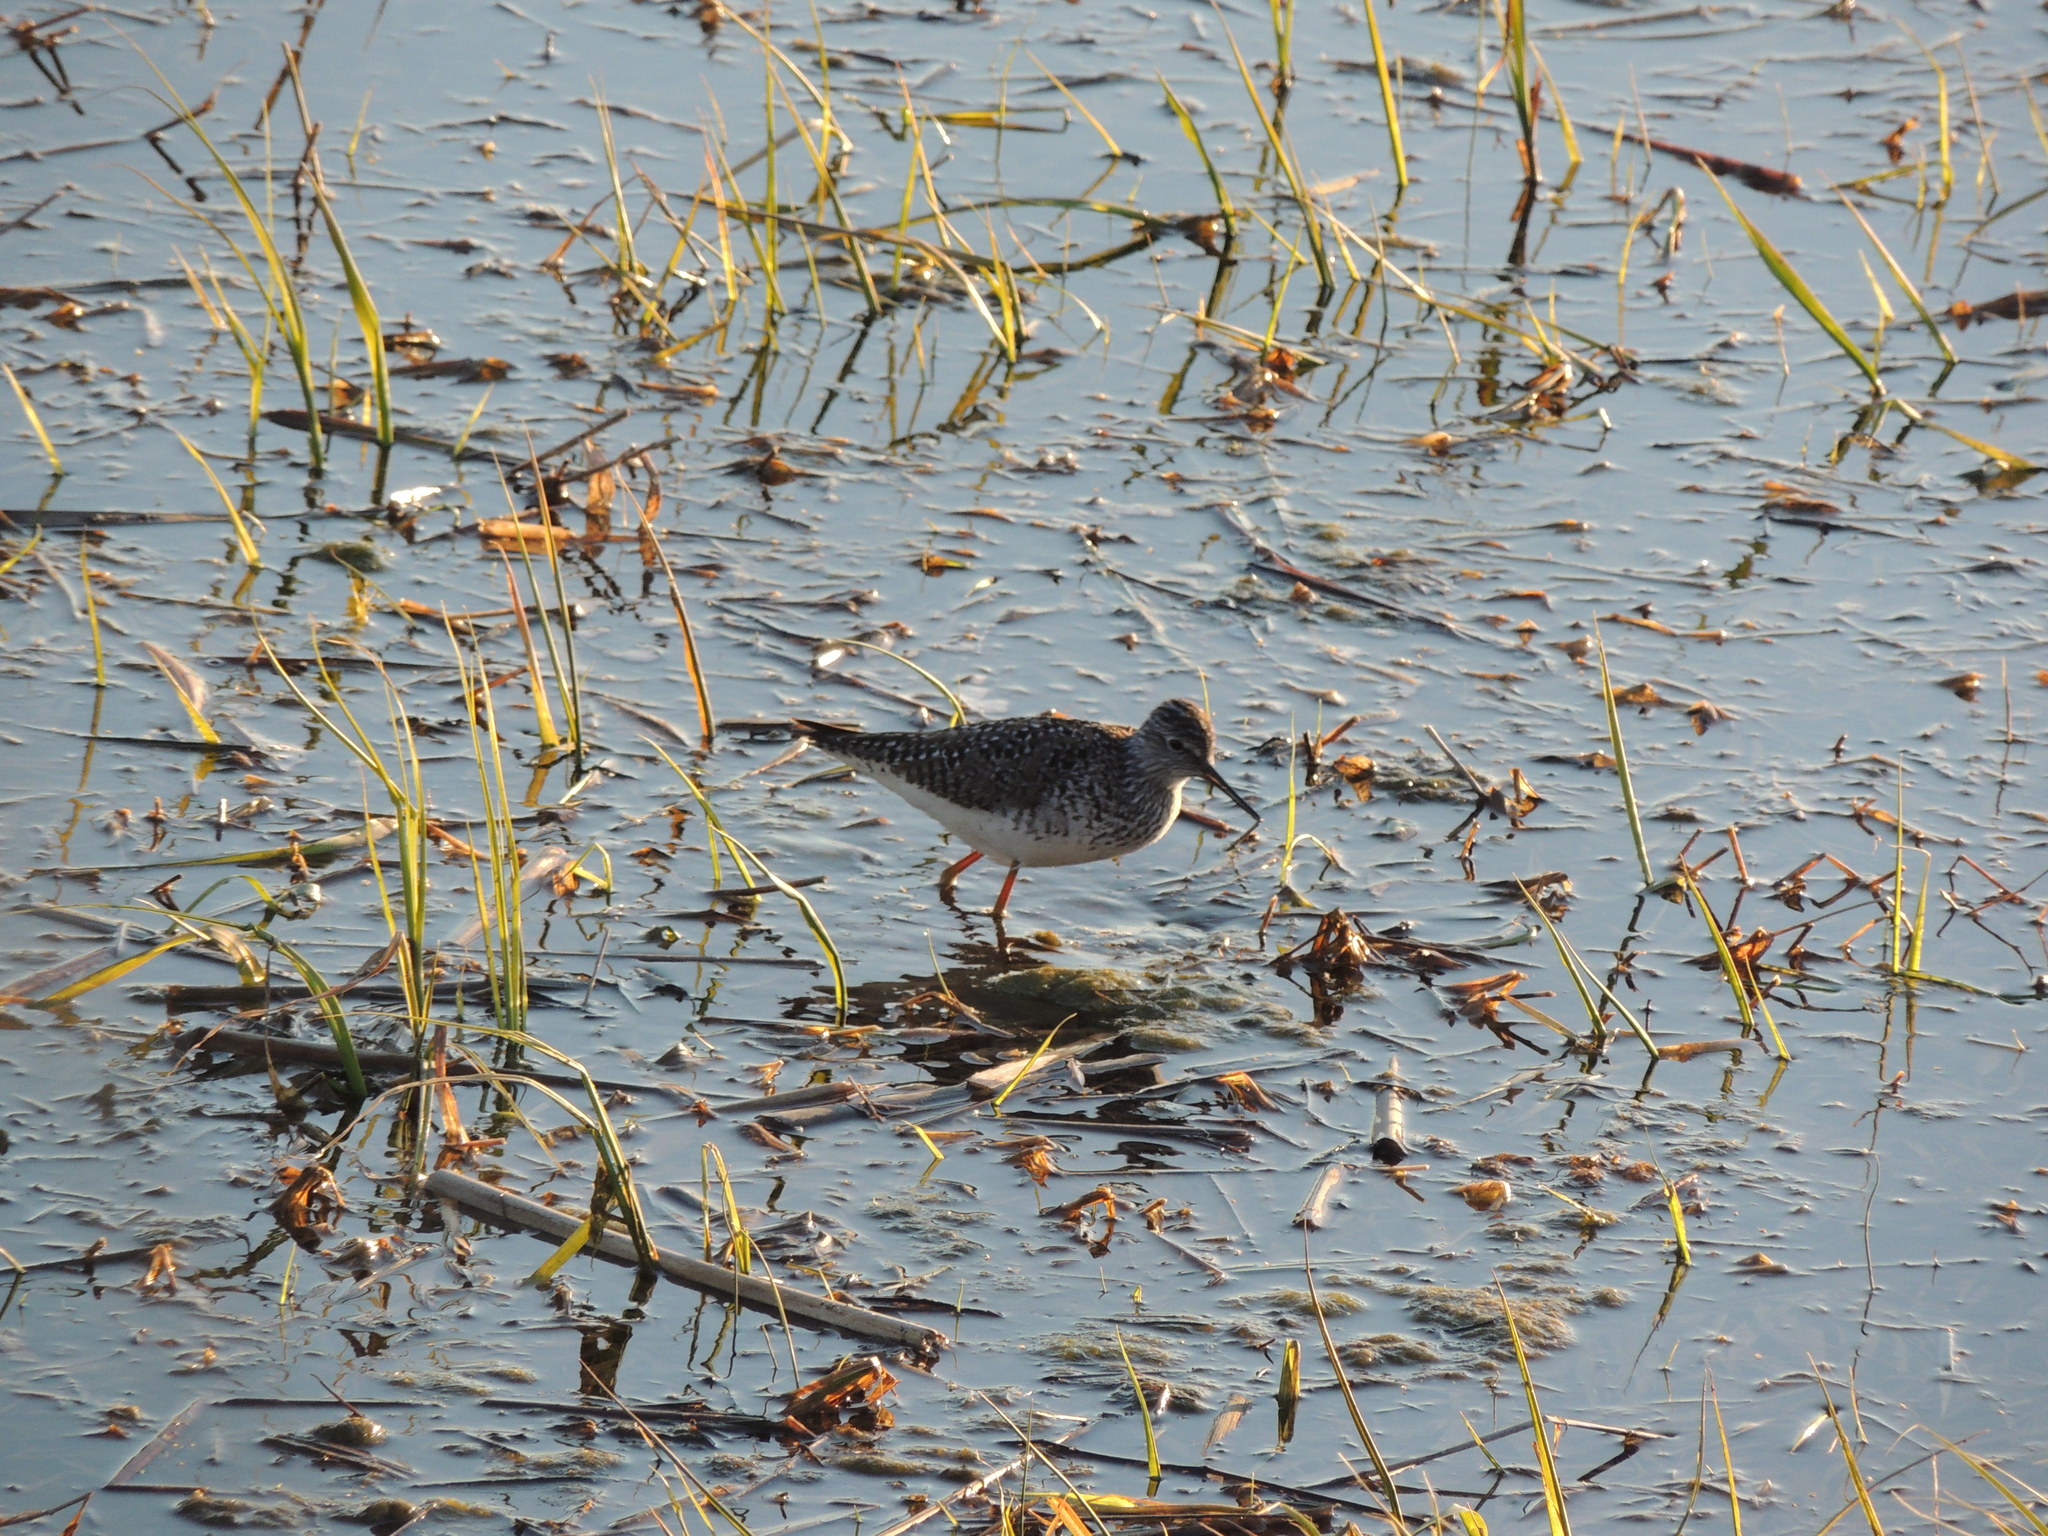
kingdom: Animalia
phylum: Chordata
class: Aves
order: Charadriiformes
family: Scolopacidae
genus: Tringa
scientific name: Tringa flavipes
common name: Lesser yellowlegs
